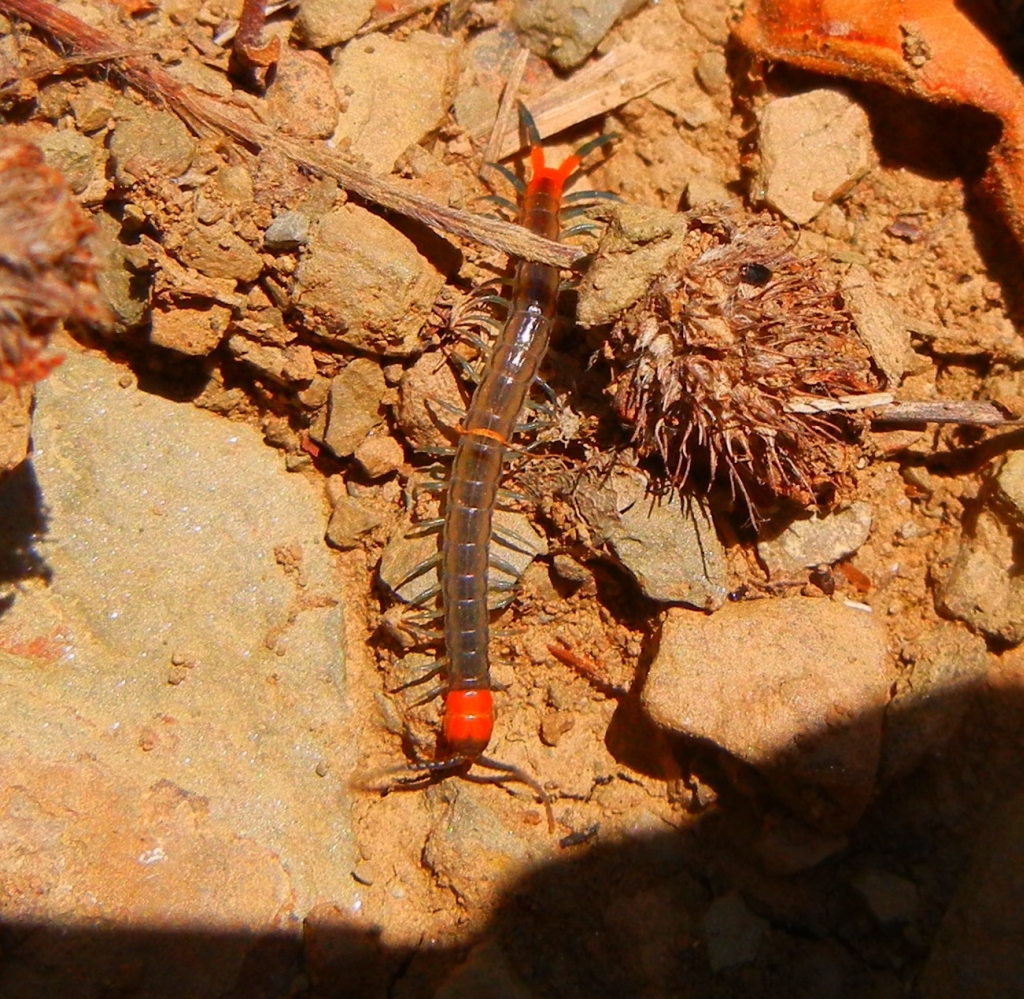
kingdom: Animalia
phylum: Arthropoda
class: Chilopoda
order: Scolopendromorpha
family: Scolopendridae
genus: Scolopendra
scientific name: Scolopendra cingulata
